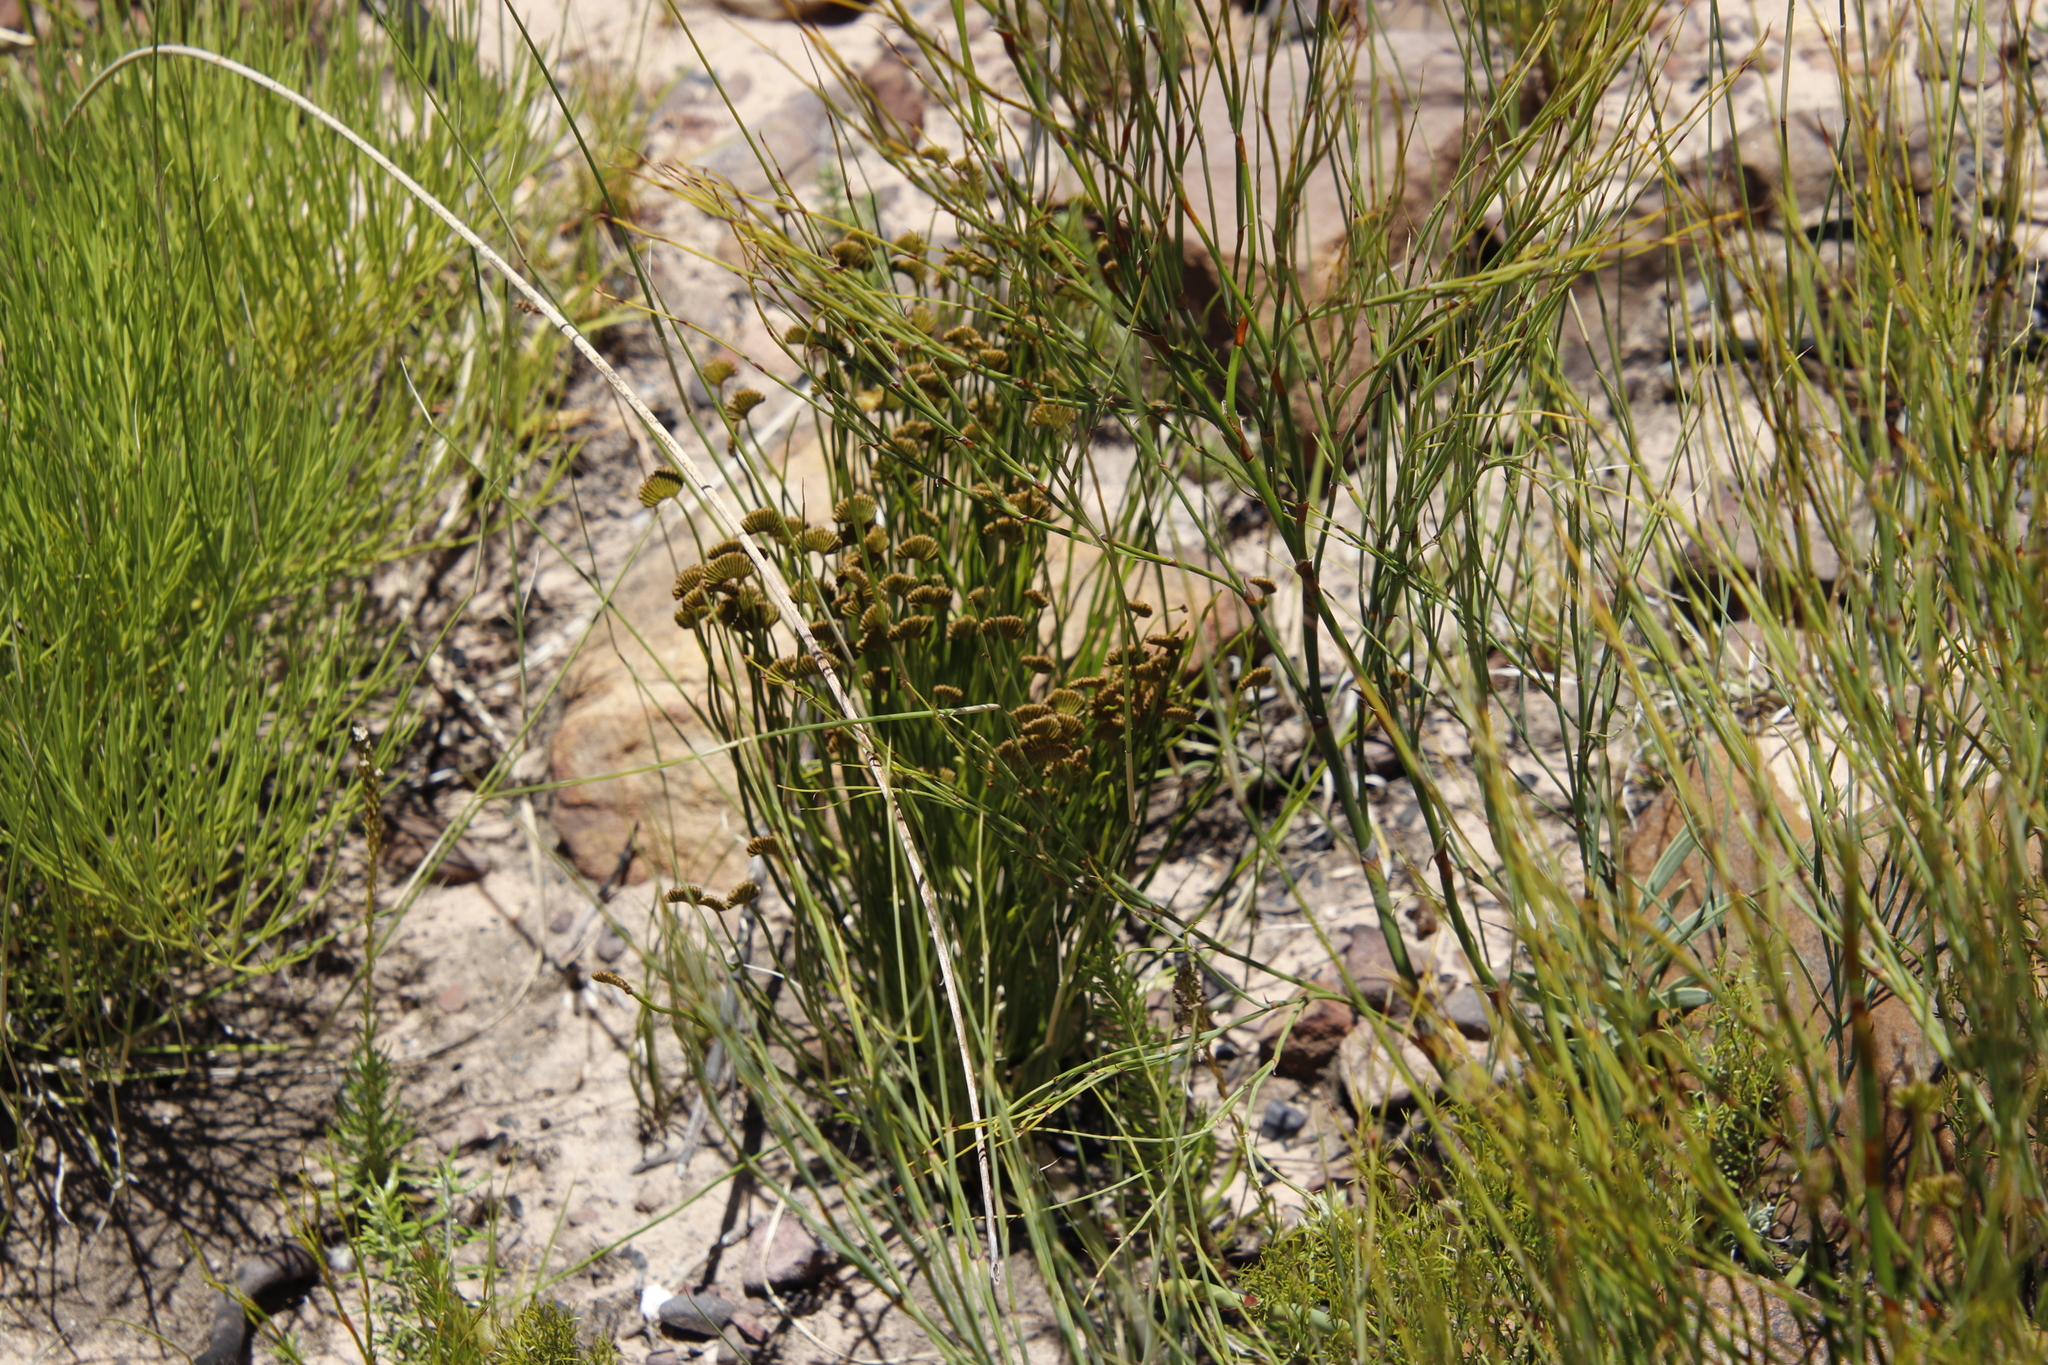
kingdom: Plantae
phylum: Tracheophyta
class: Polypodiopsida
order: Schizaeales
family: Schizaeaceae
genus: Schizaea
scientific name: Schizaea pectinata
